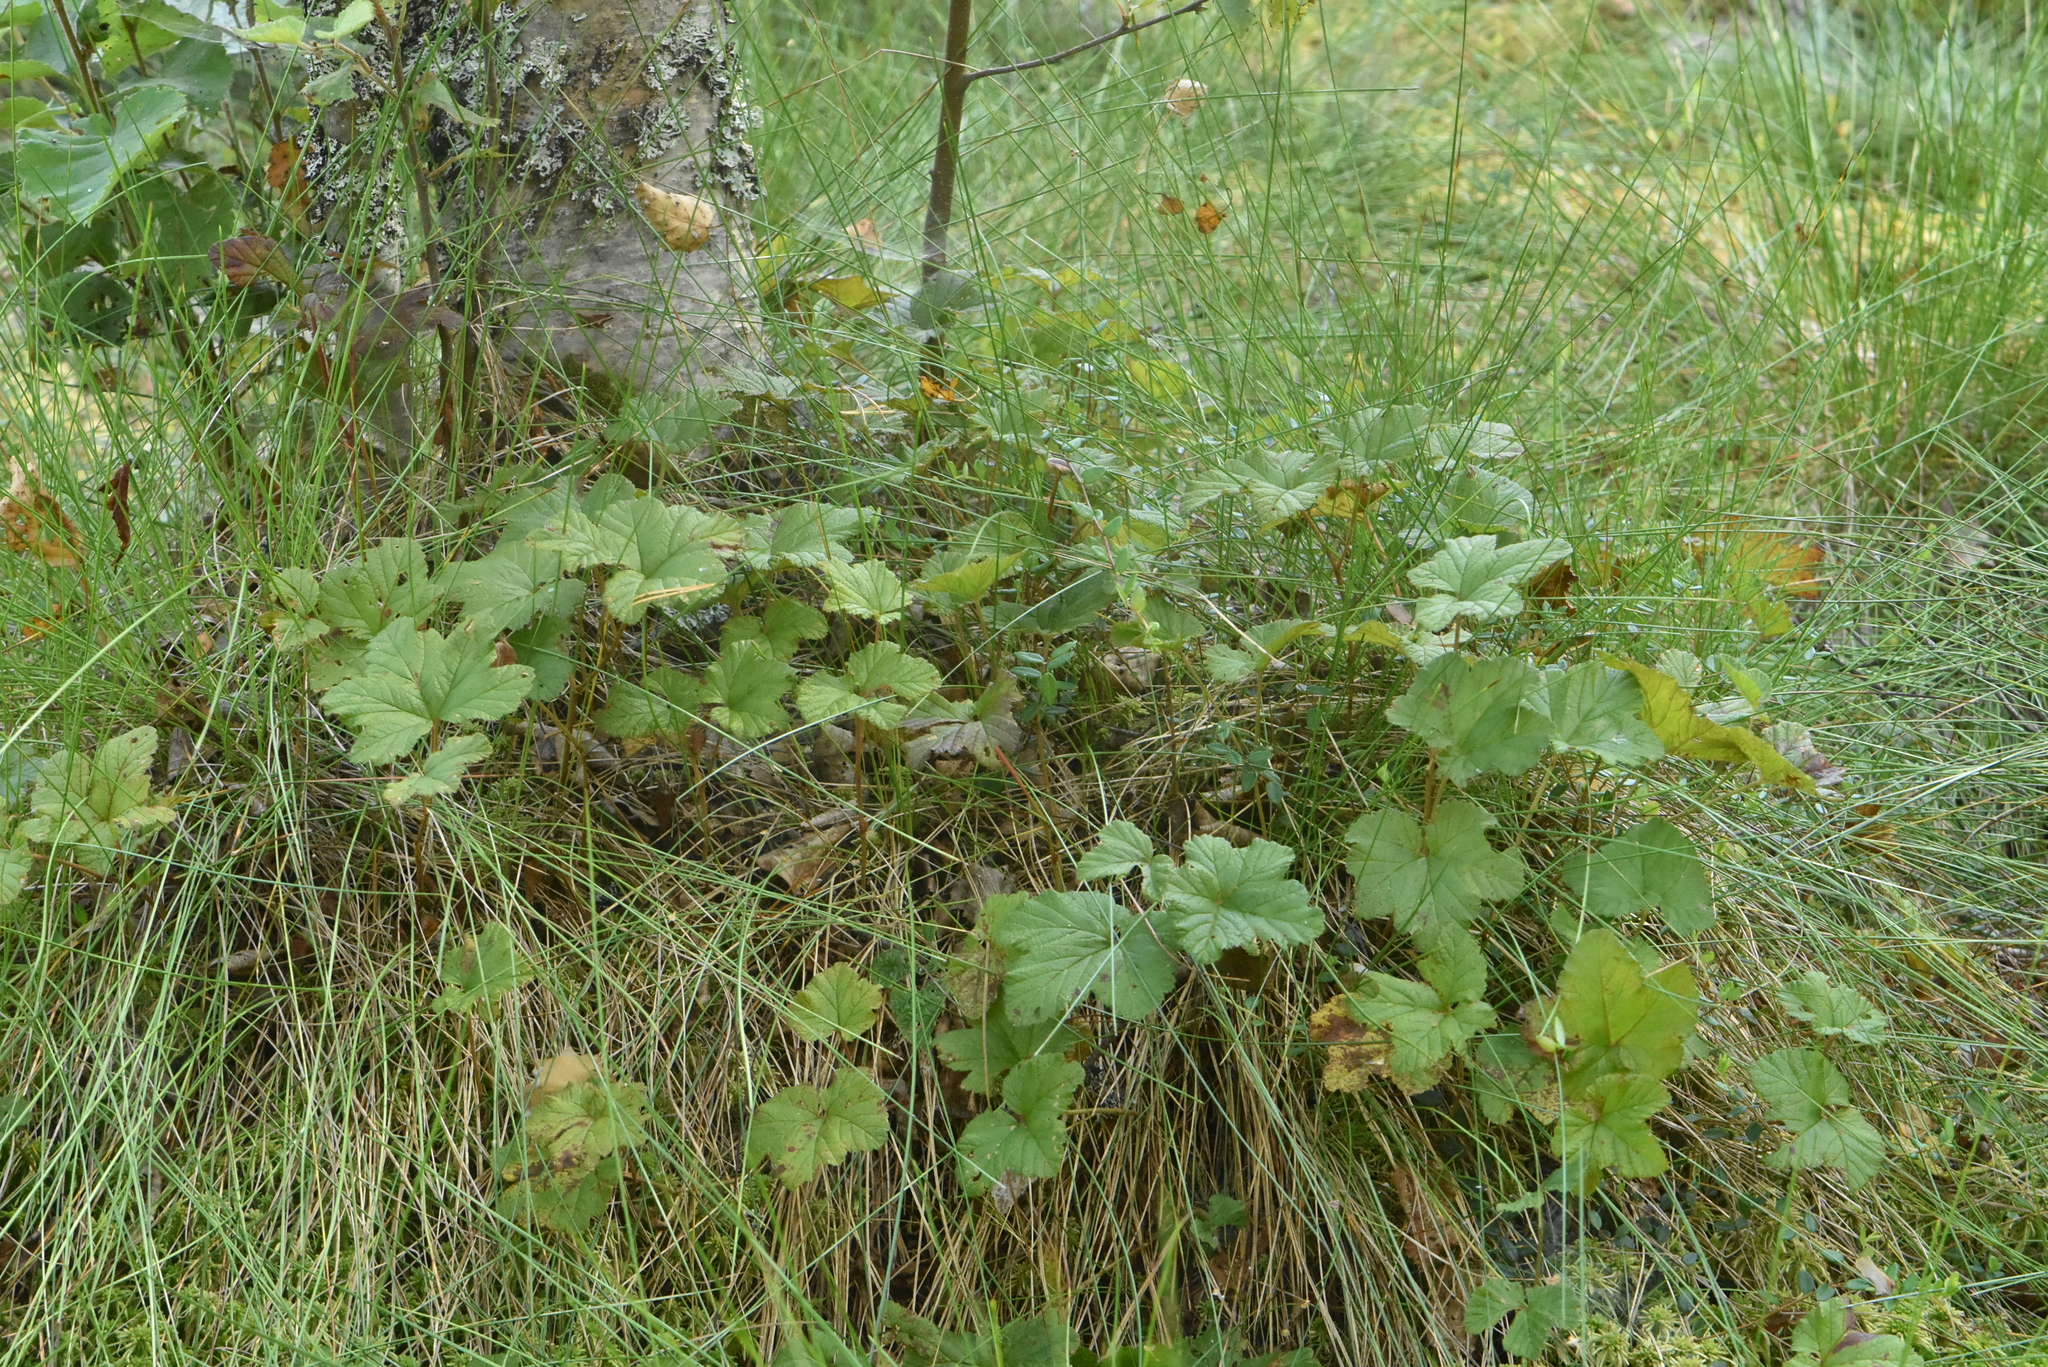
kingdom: Plantae
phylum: Tracheophyta
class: Magnoliopsida
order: Rosales
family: Rosaceae
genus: Rubus
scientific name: Rubus chamaemorus
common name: Cloudberry
